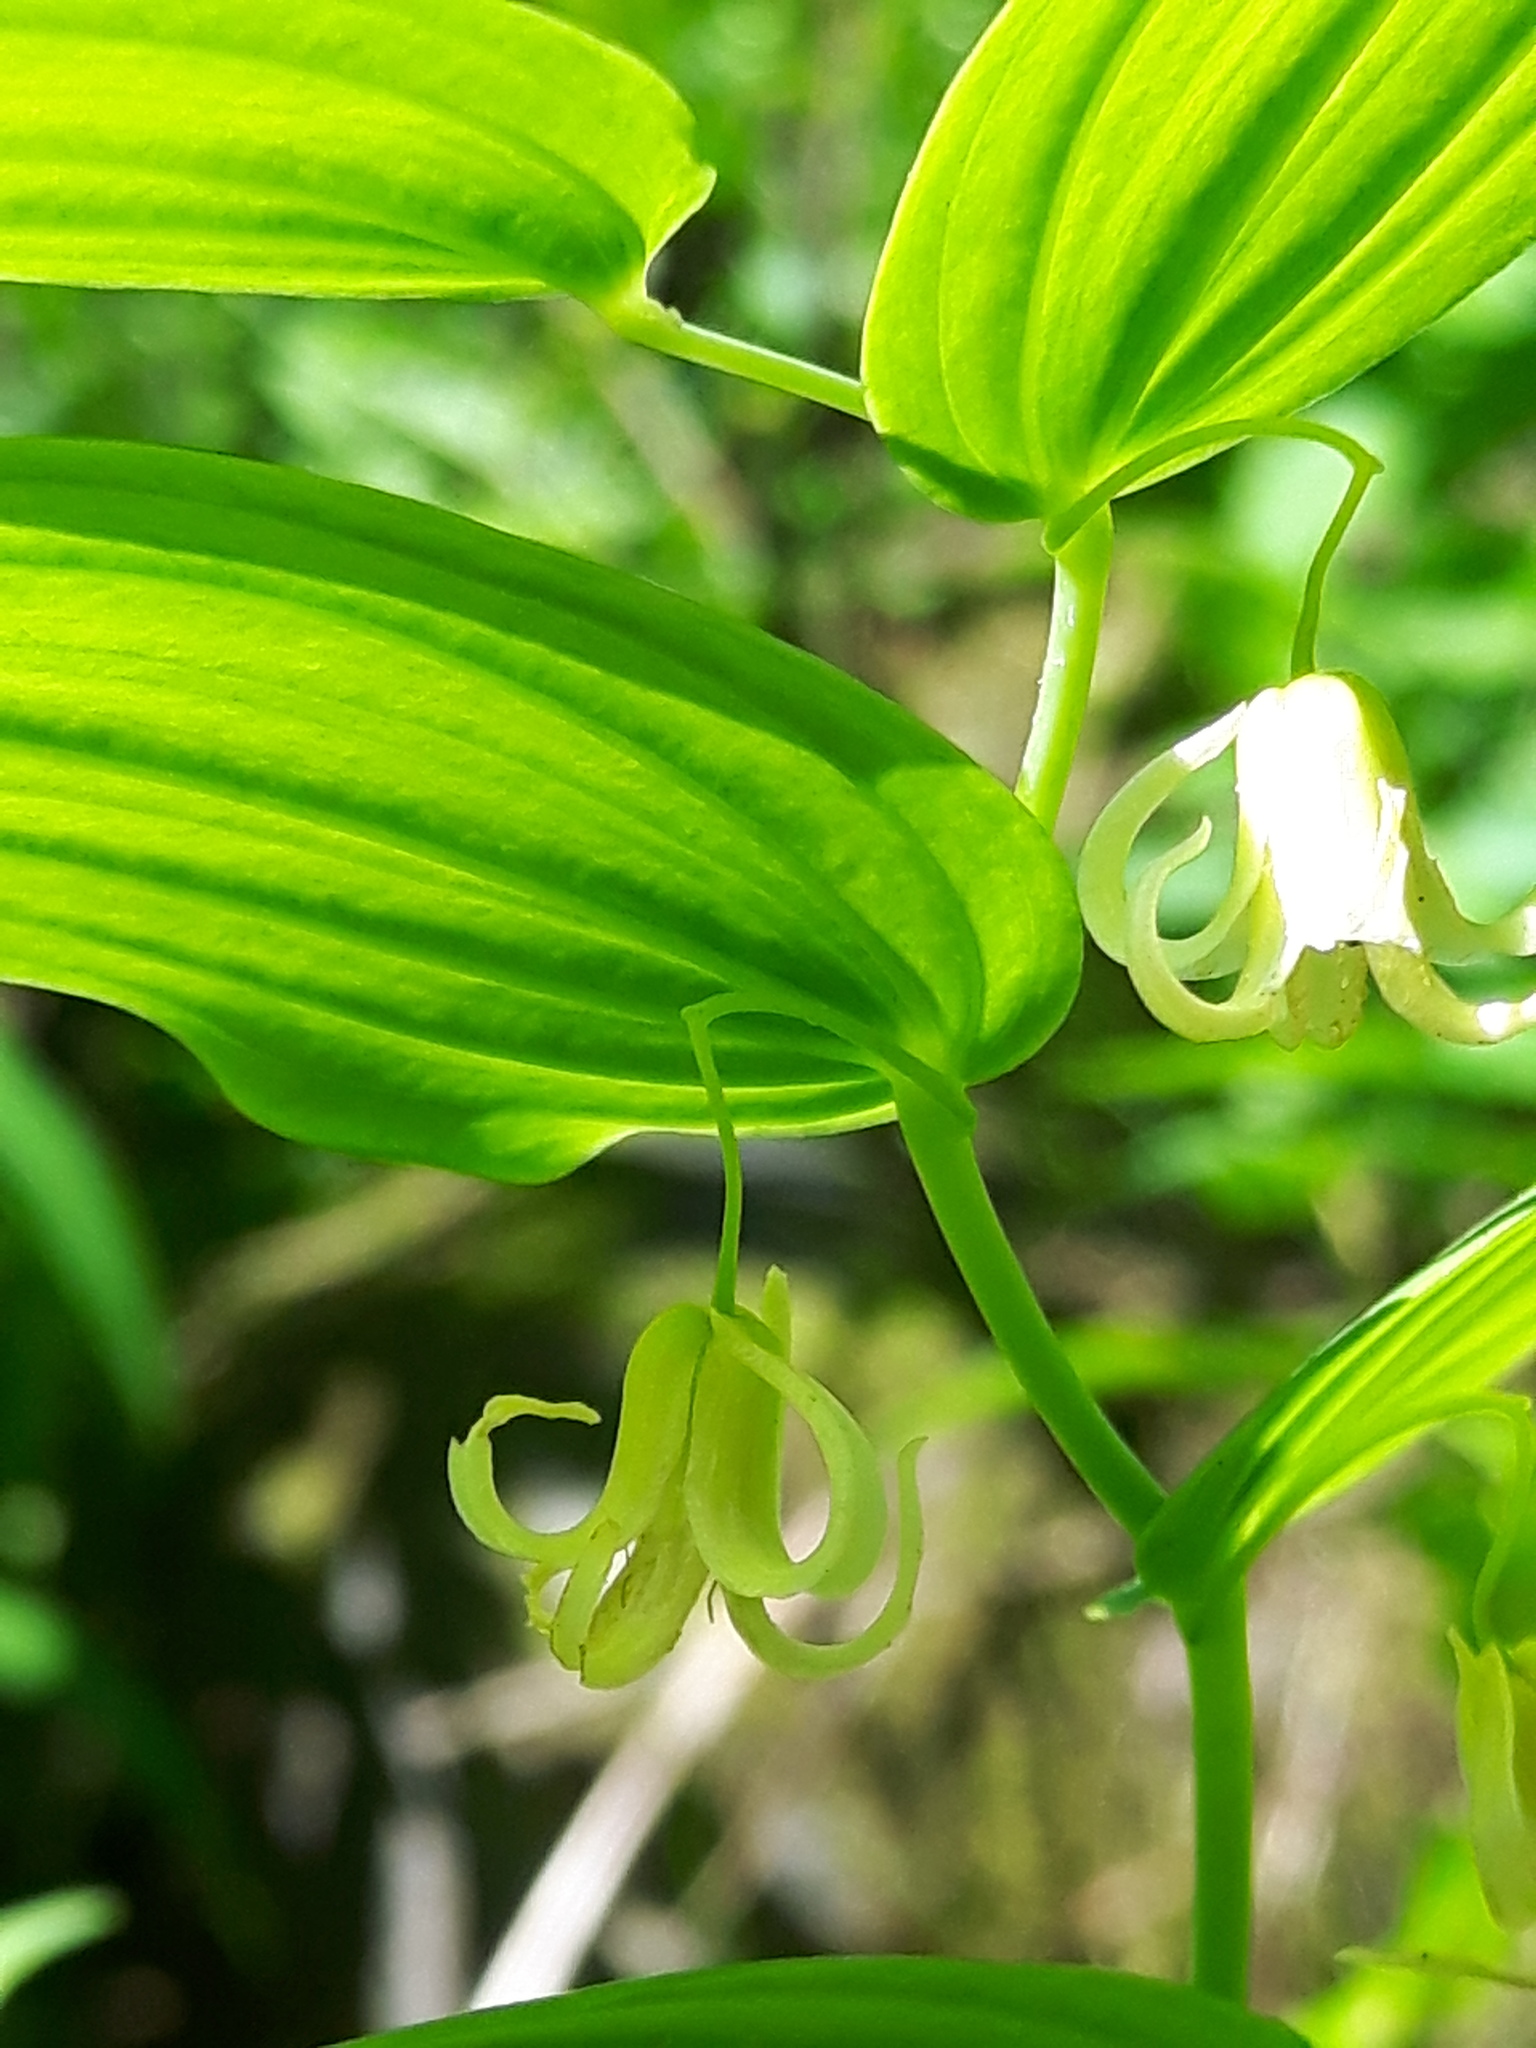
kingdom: Plantae
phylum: Tracheophyta
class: Liliopsida
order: Liliales
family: Liliaceae
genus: Streptopus
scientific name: Streptopus amplexifolius
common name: Clasp twisted stalk
